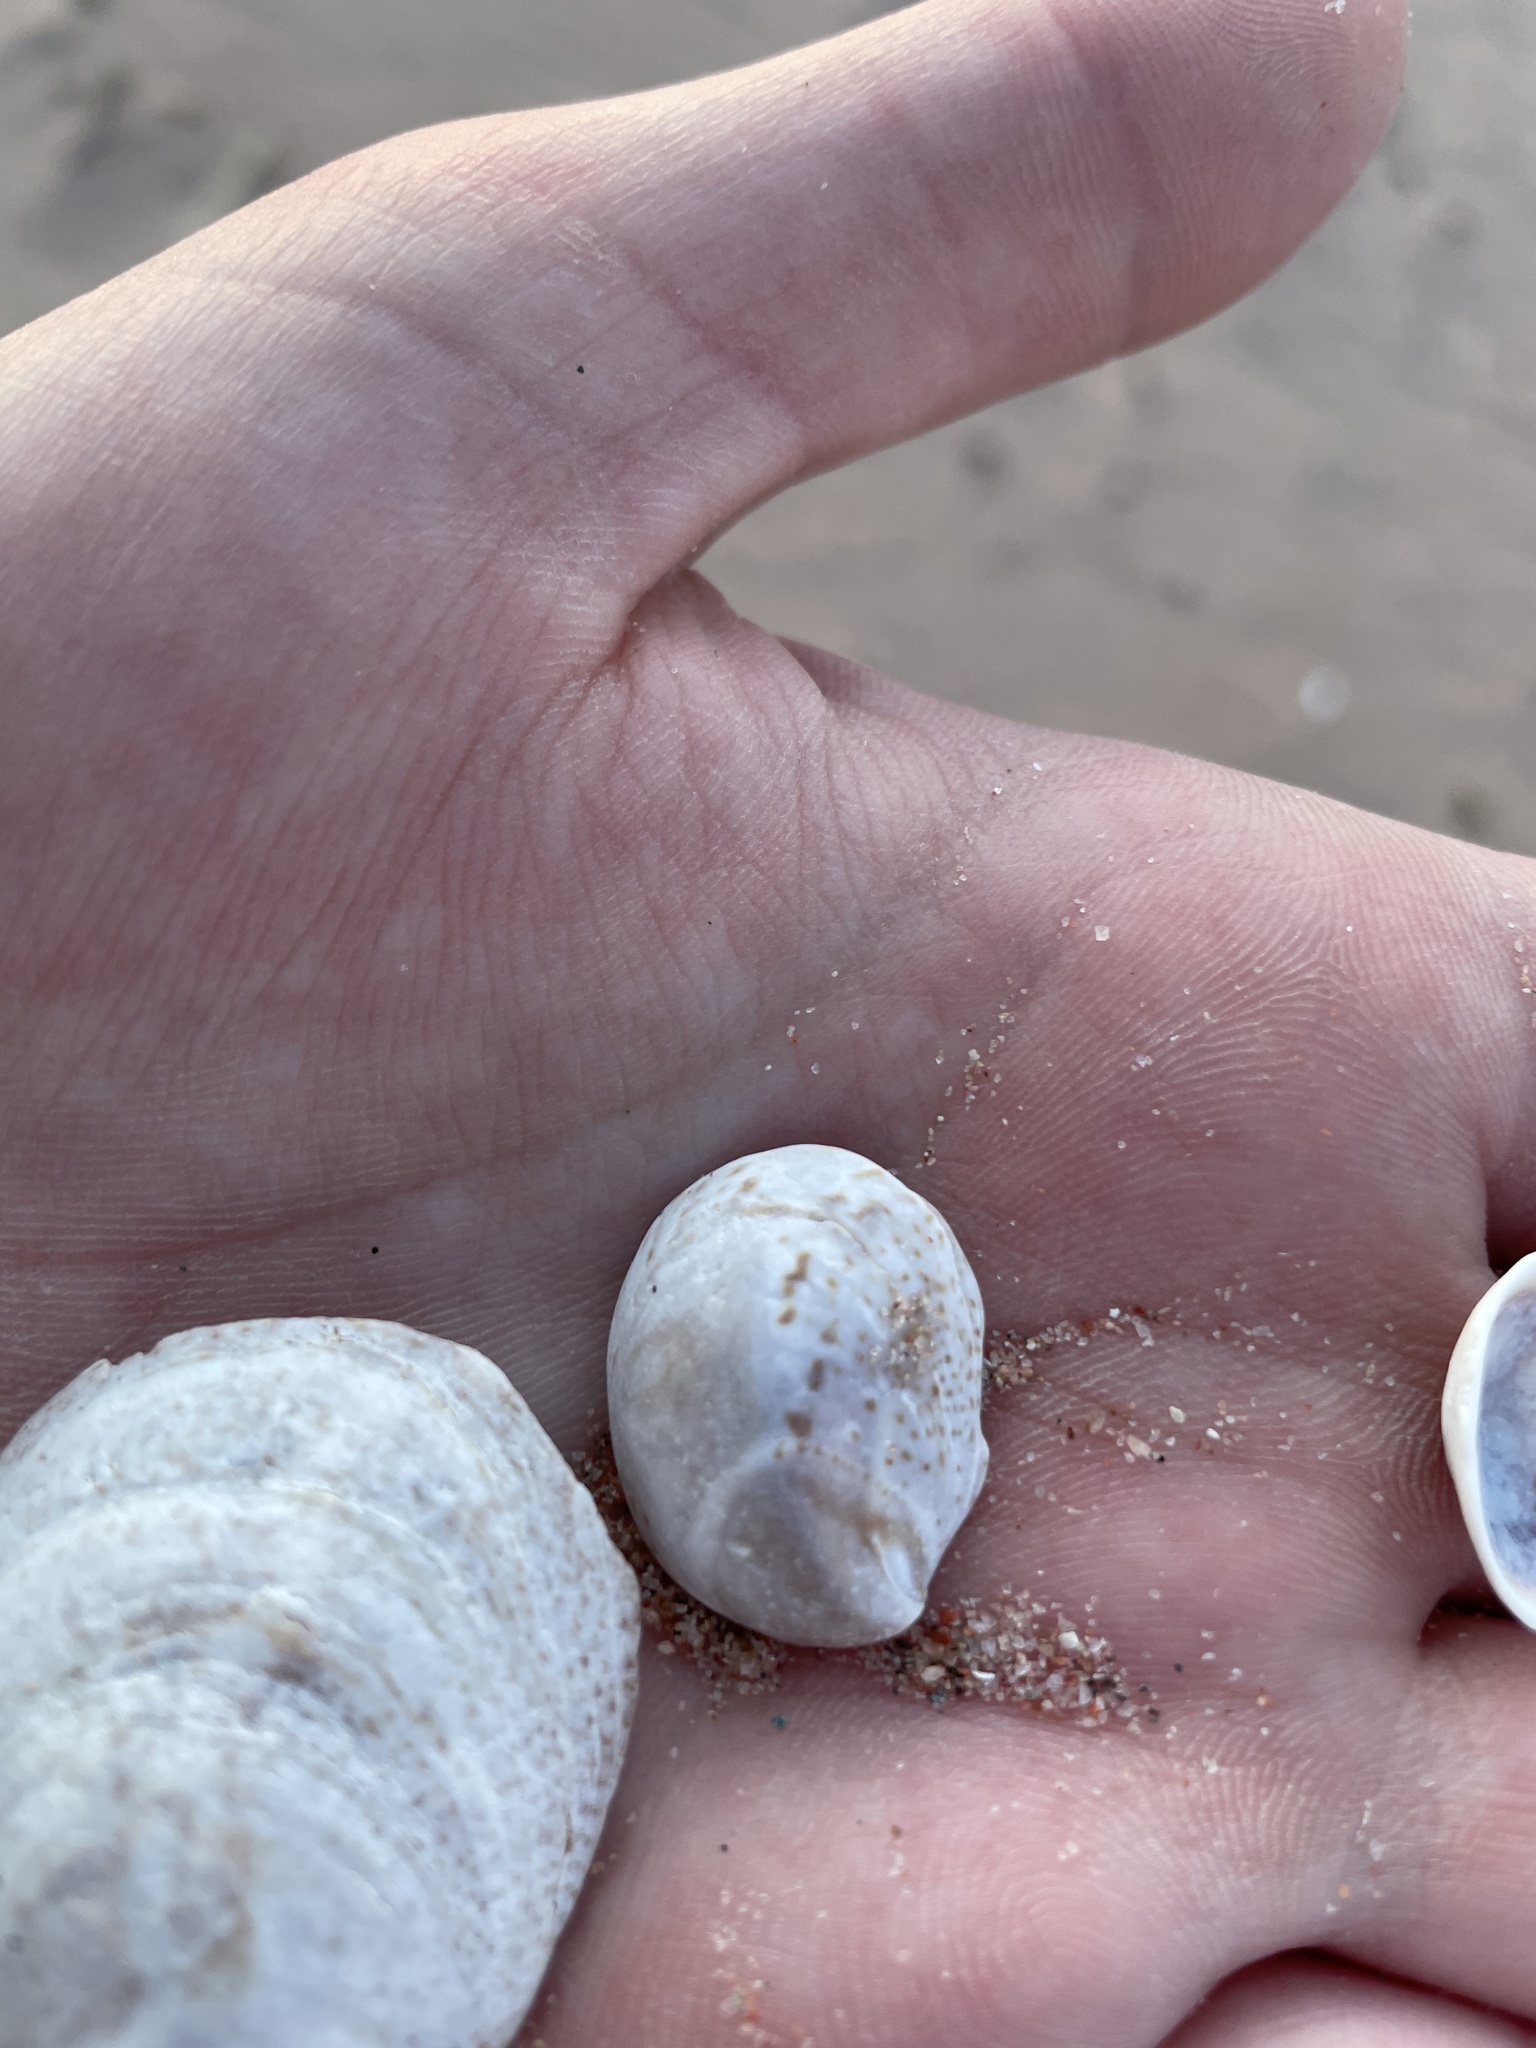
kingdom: Animalia
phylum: Mollusca
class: Gastropoda
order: Littorinimorpha
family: Calyptraeidae
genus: Crepidula
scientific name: Crepidula fornicata
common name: Slipper limpet
